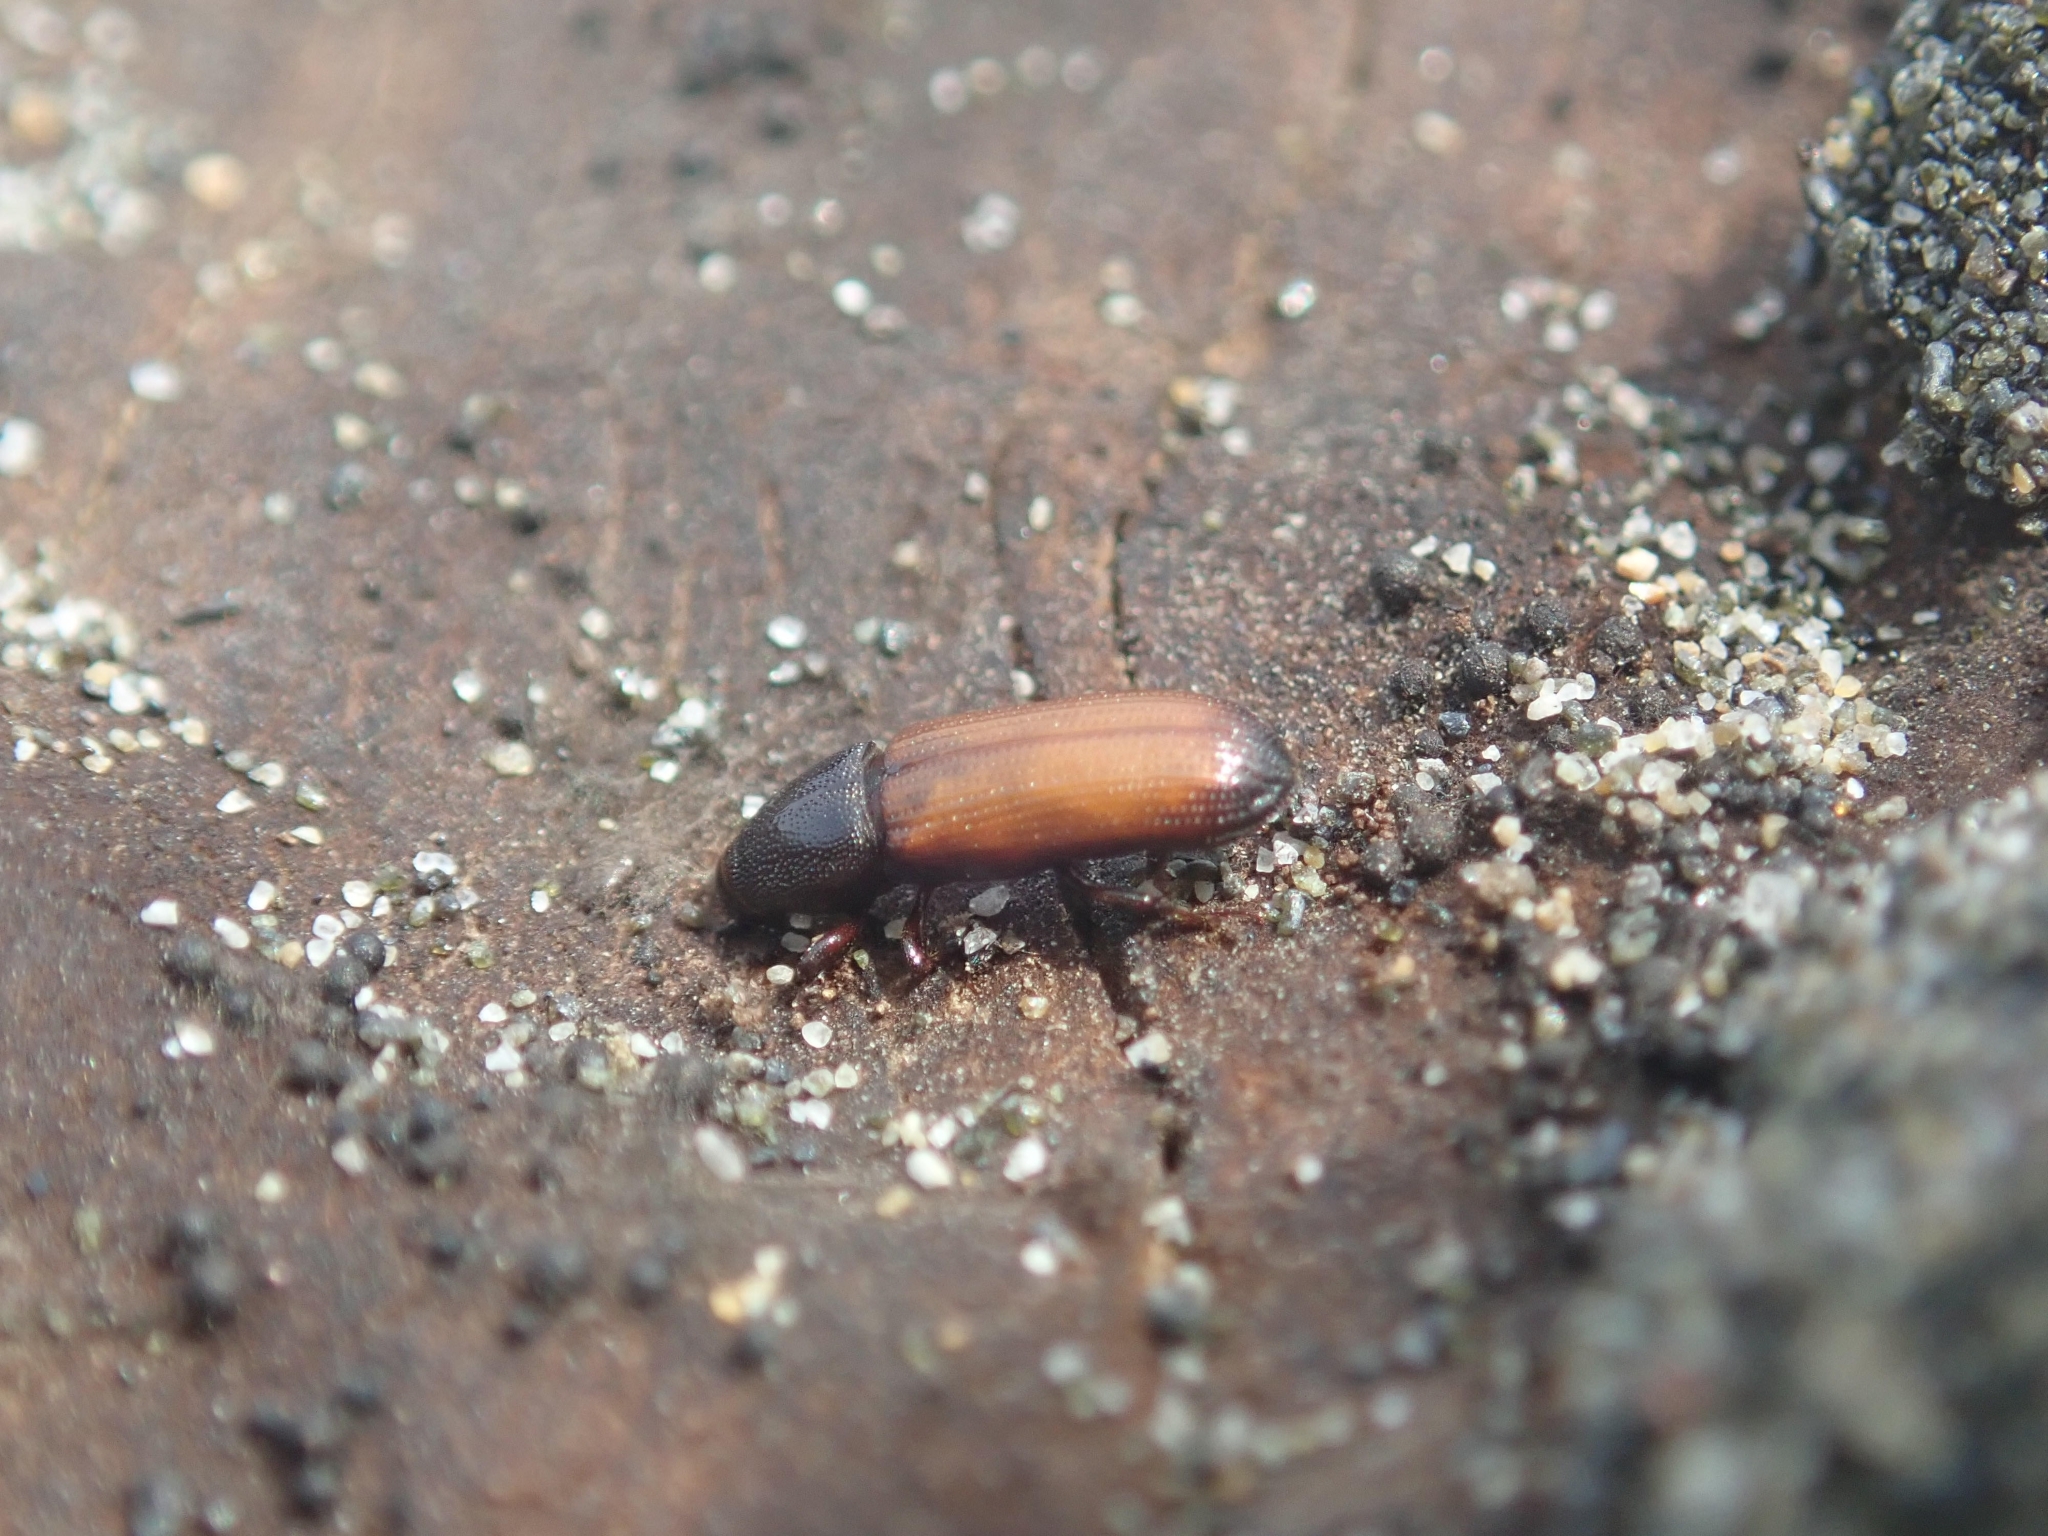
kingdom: Animalia
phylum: Arthropoda
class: Insecta
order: Coleoptera
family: Curculionidae
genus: Mesites
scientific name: Mesites pallidipennis
